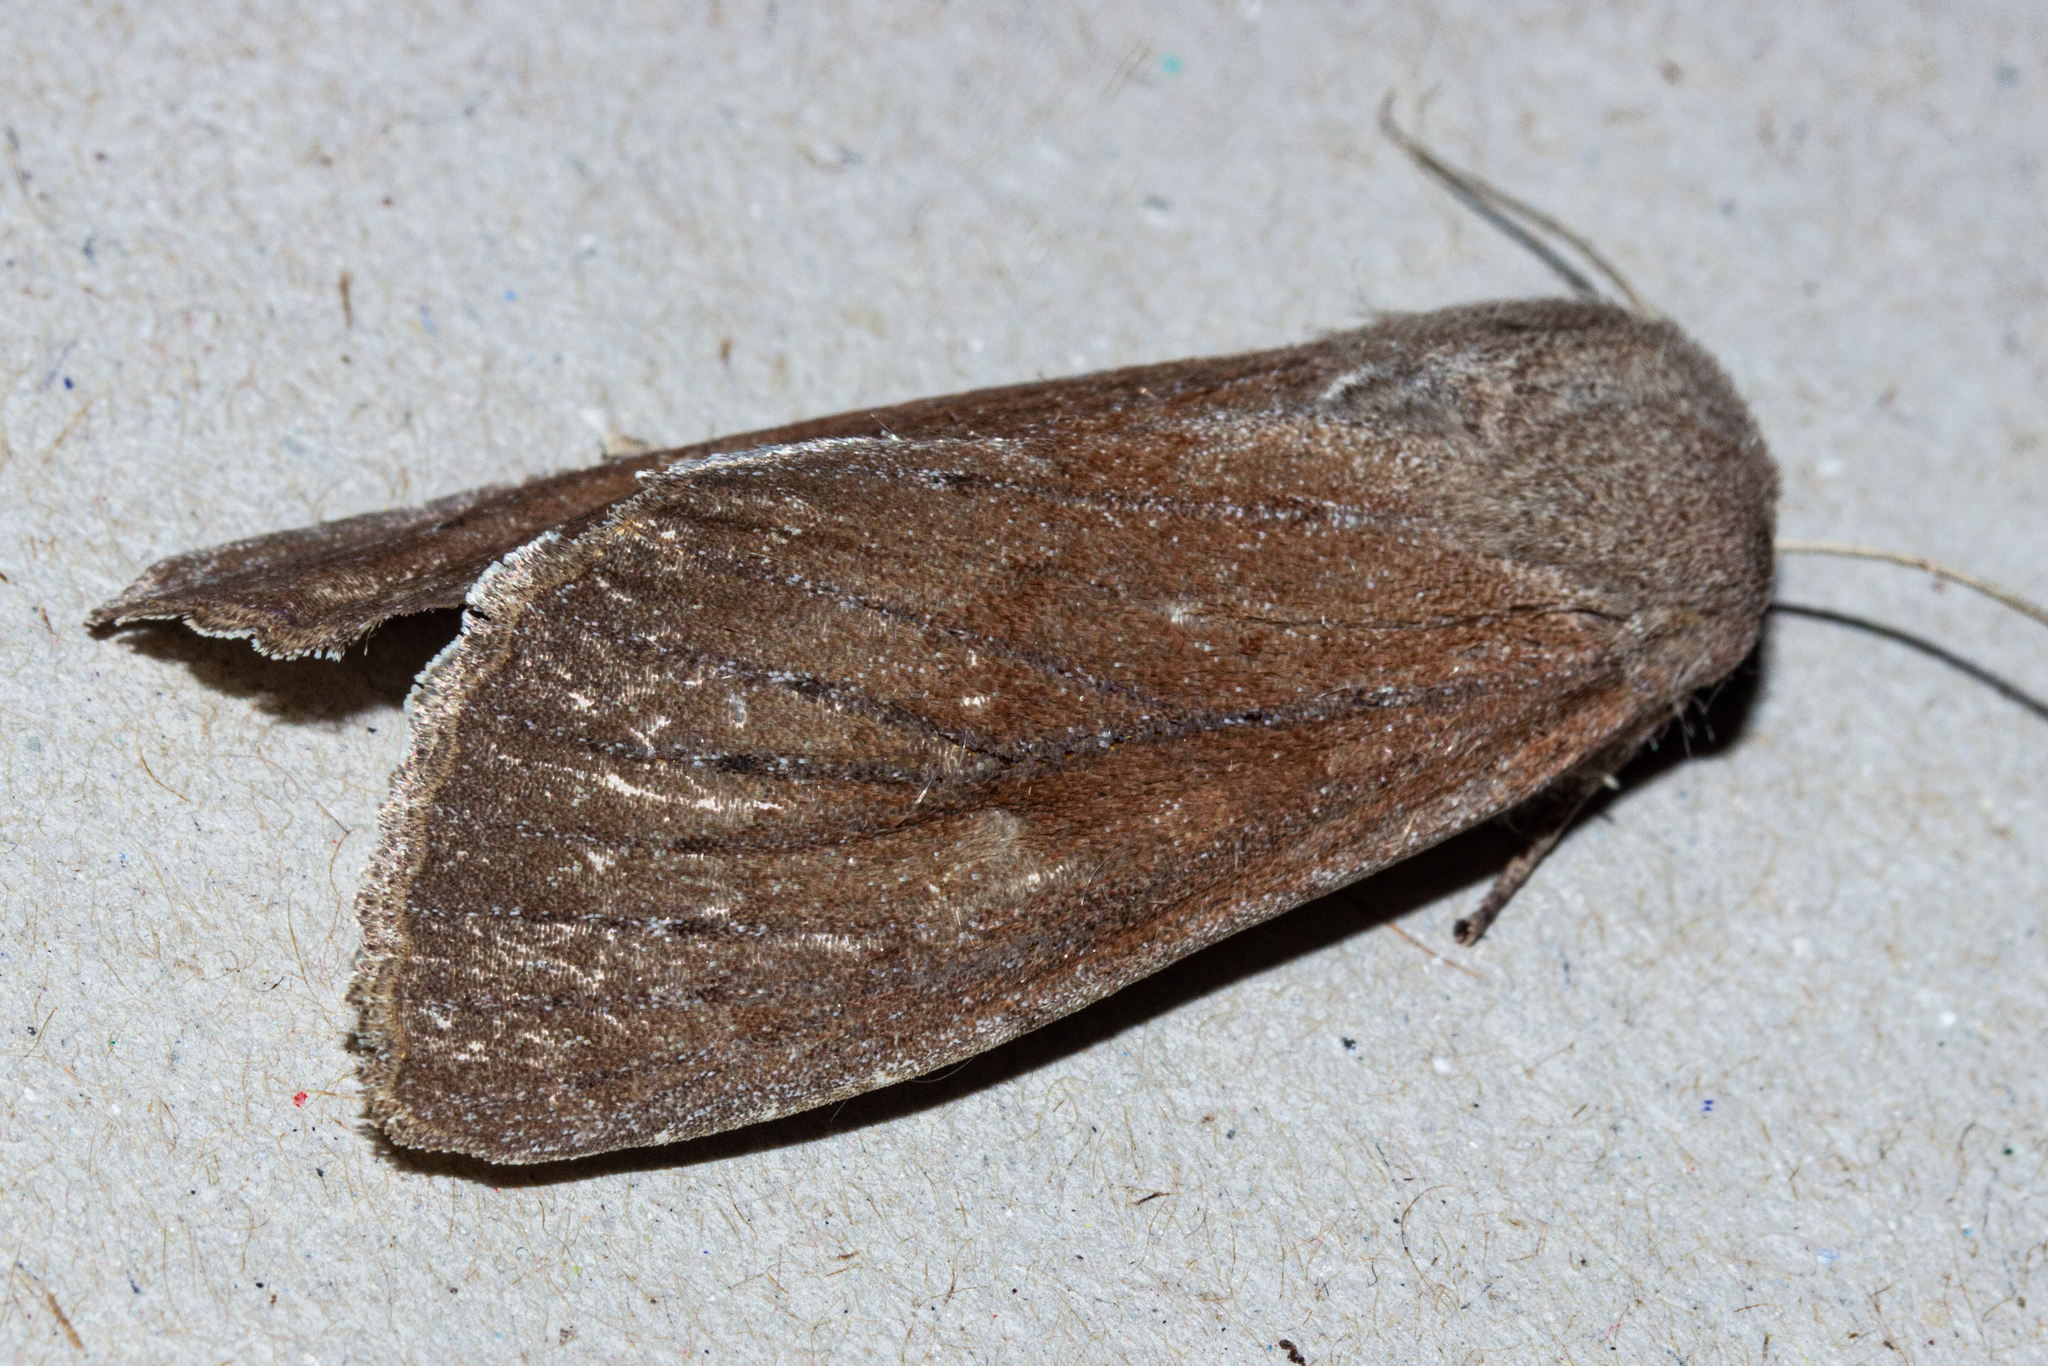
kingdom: Animalia
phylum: Arthropoda
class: Insecta
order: Lepidoptera
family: Noctuidae
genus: Ichneutica
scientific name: Ichneutica nullifera
